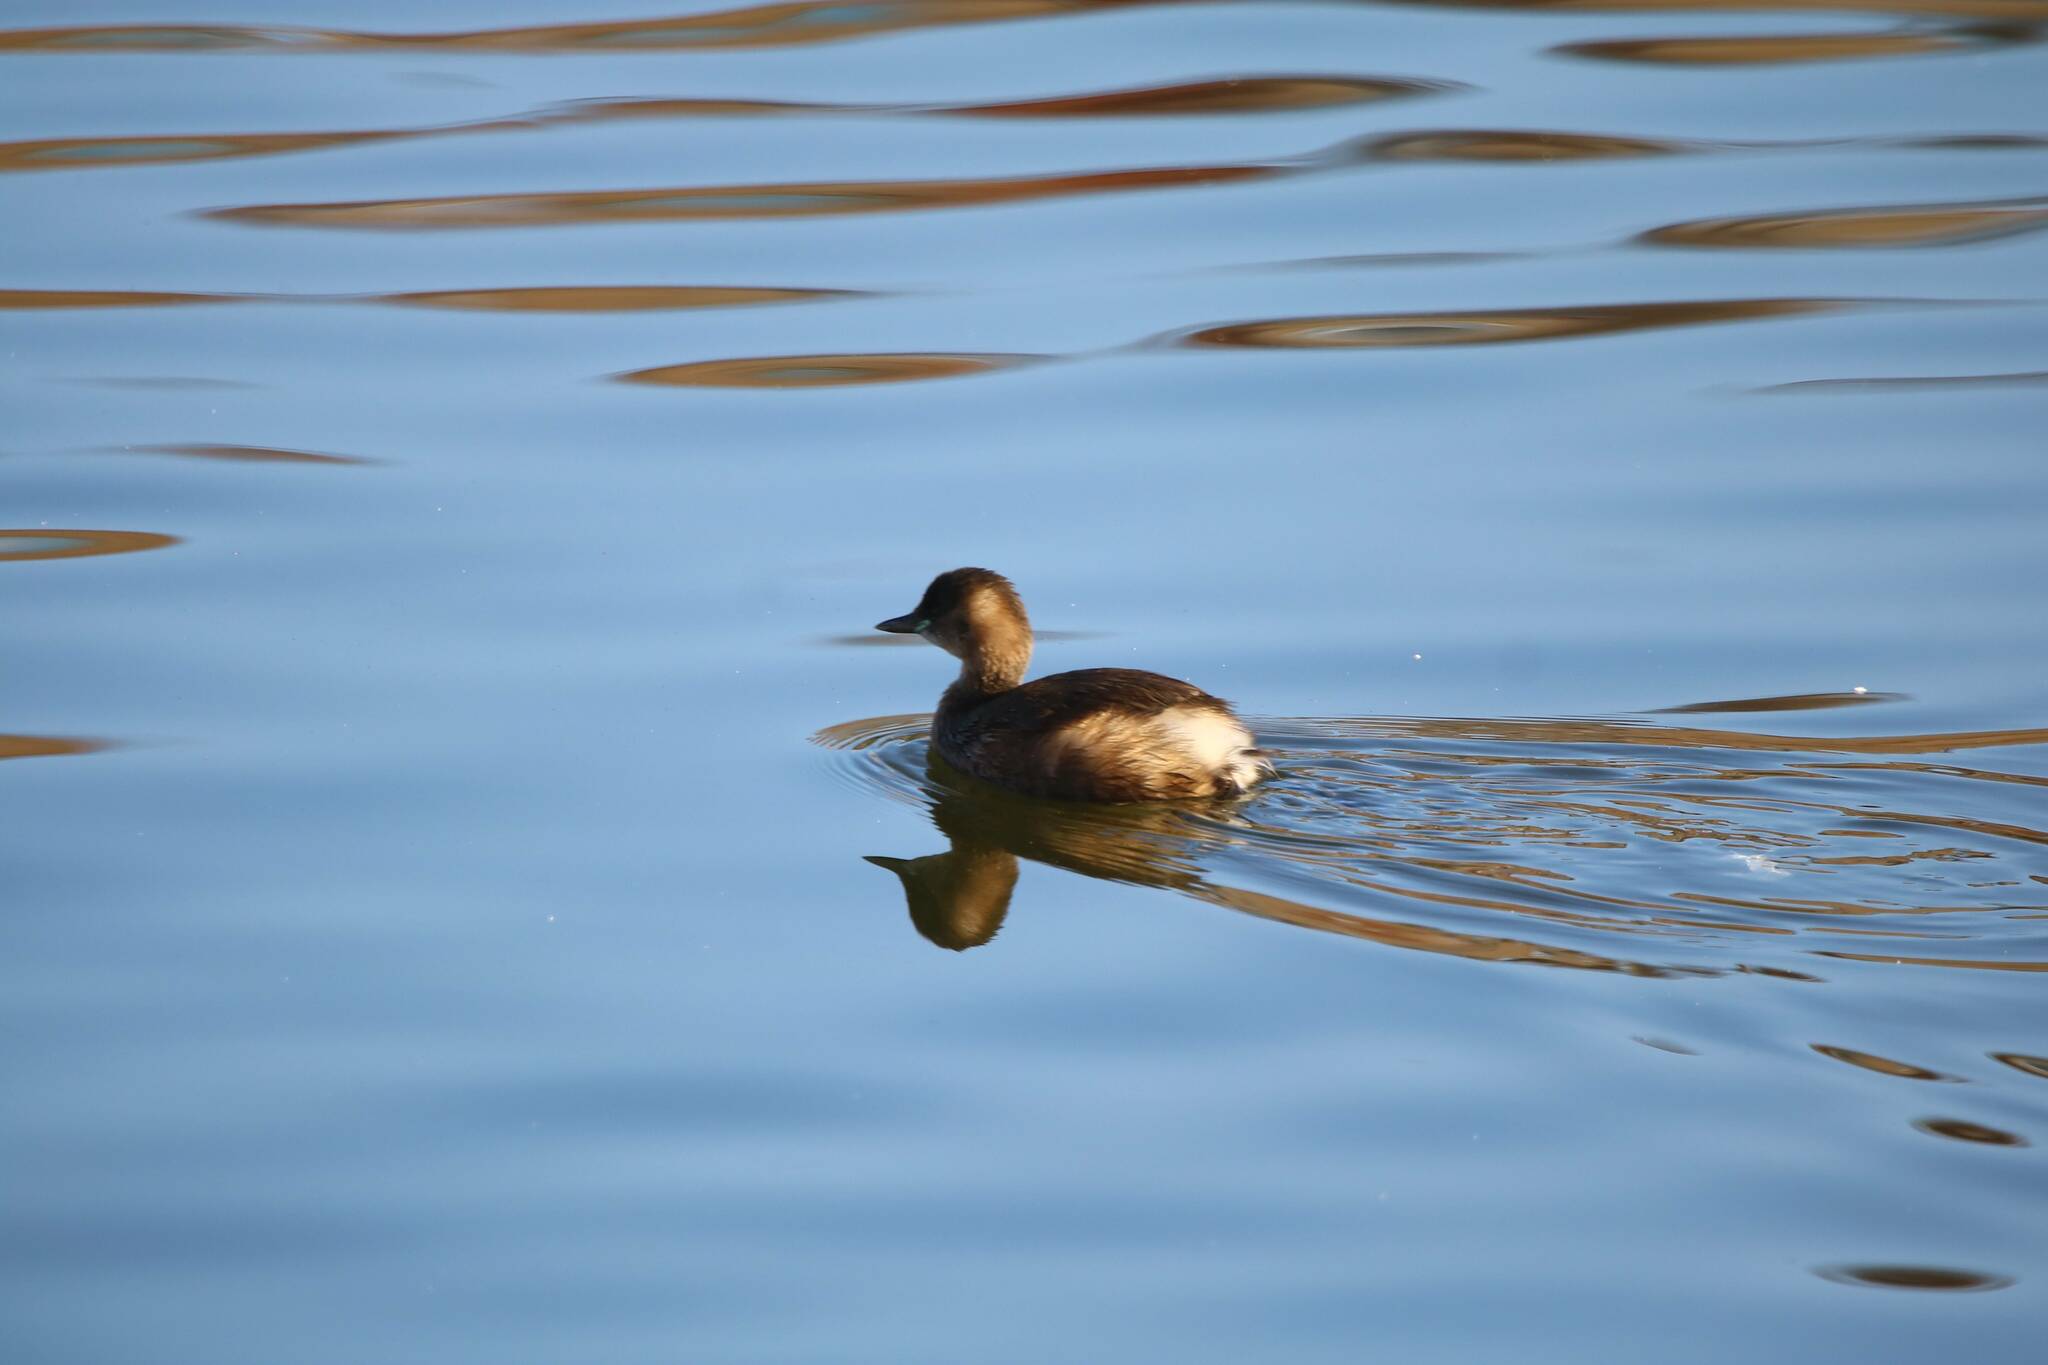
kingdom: Animalia
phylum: Chordata
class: Aves
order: Podicipediformes
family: Podicipedidae
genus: Tachybaptus
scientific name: Tachybaptus ruficollis
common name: Little grebe
